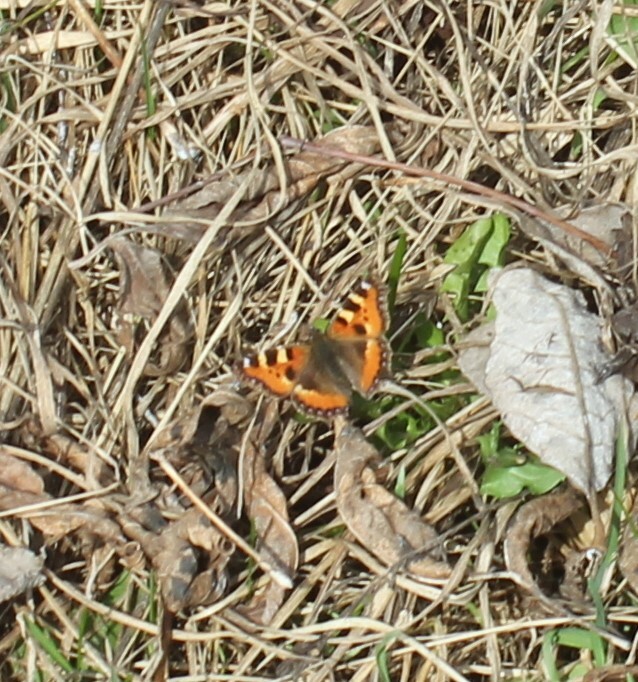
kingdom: Animalia
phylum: Arthropoda
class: Insecta
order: Lepidoptera
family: Nymphalidae
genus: Aglais
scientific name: Aglais urticae
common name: Small tortoiseshell
